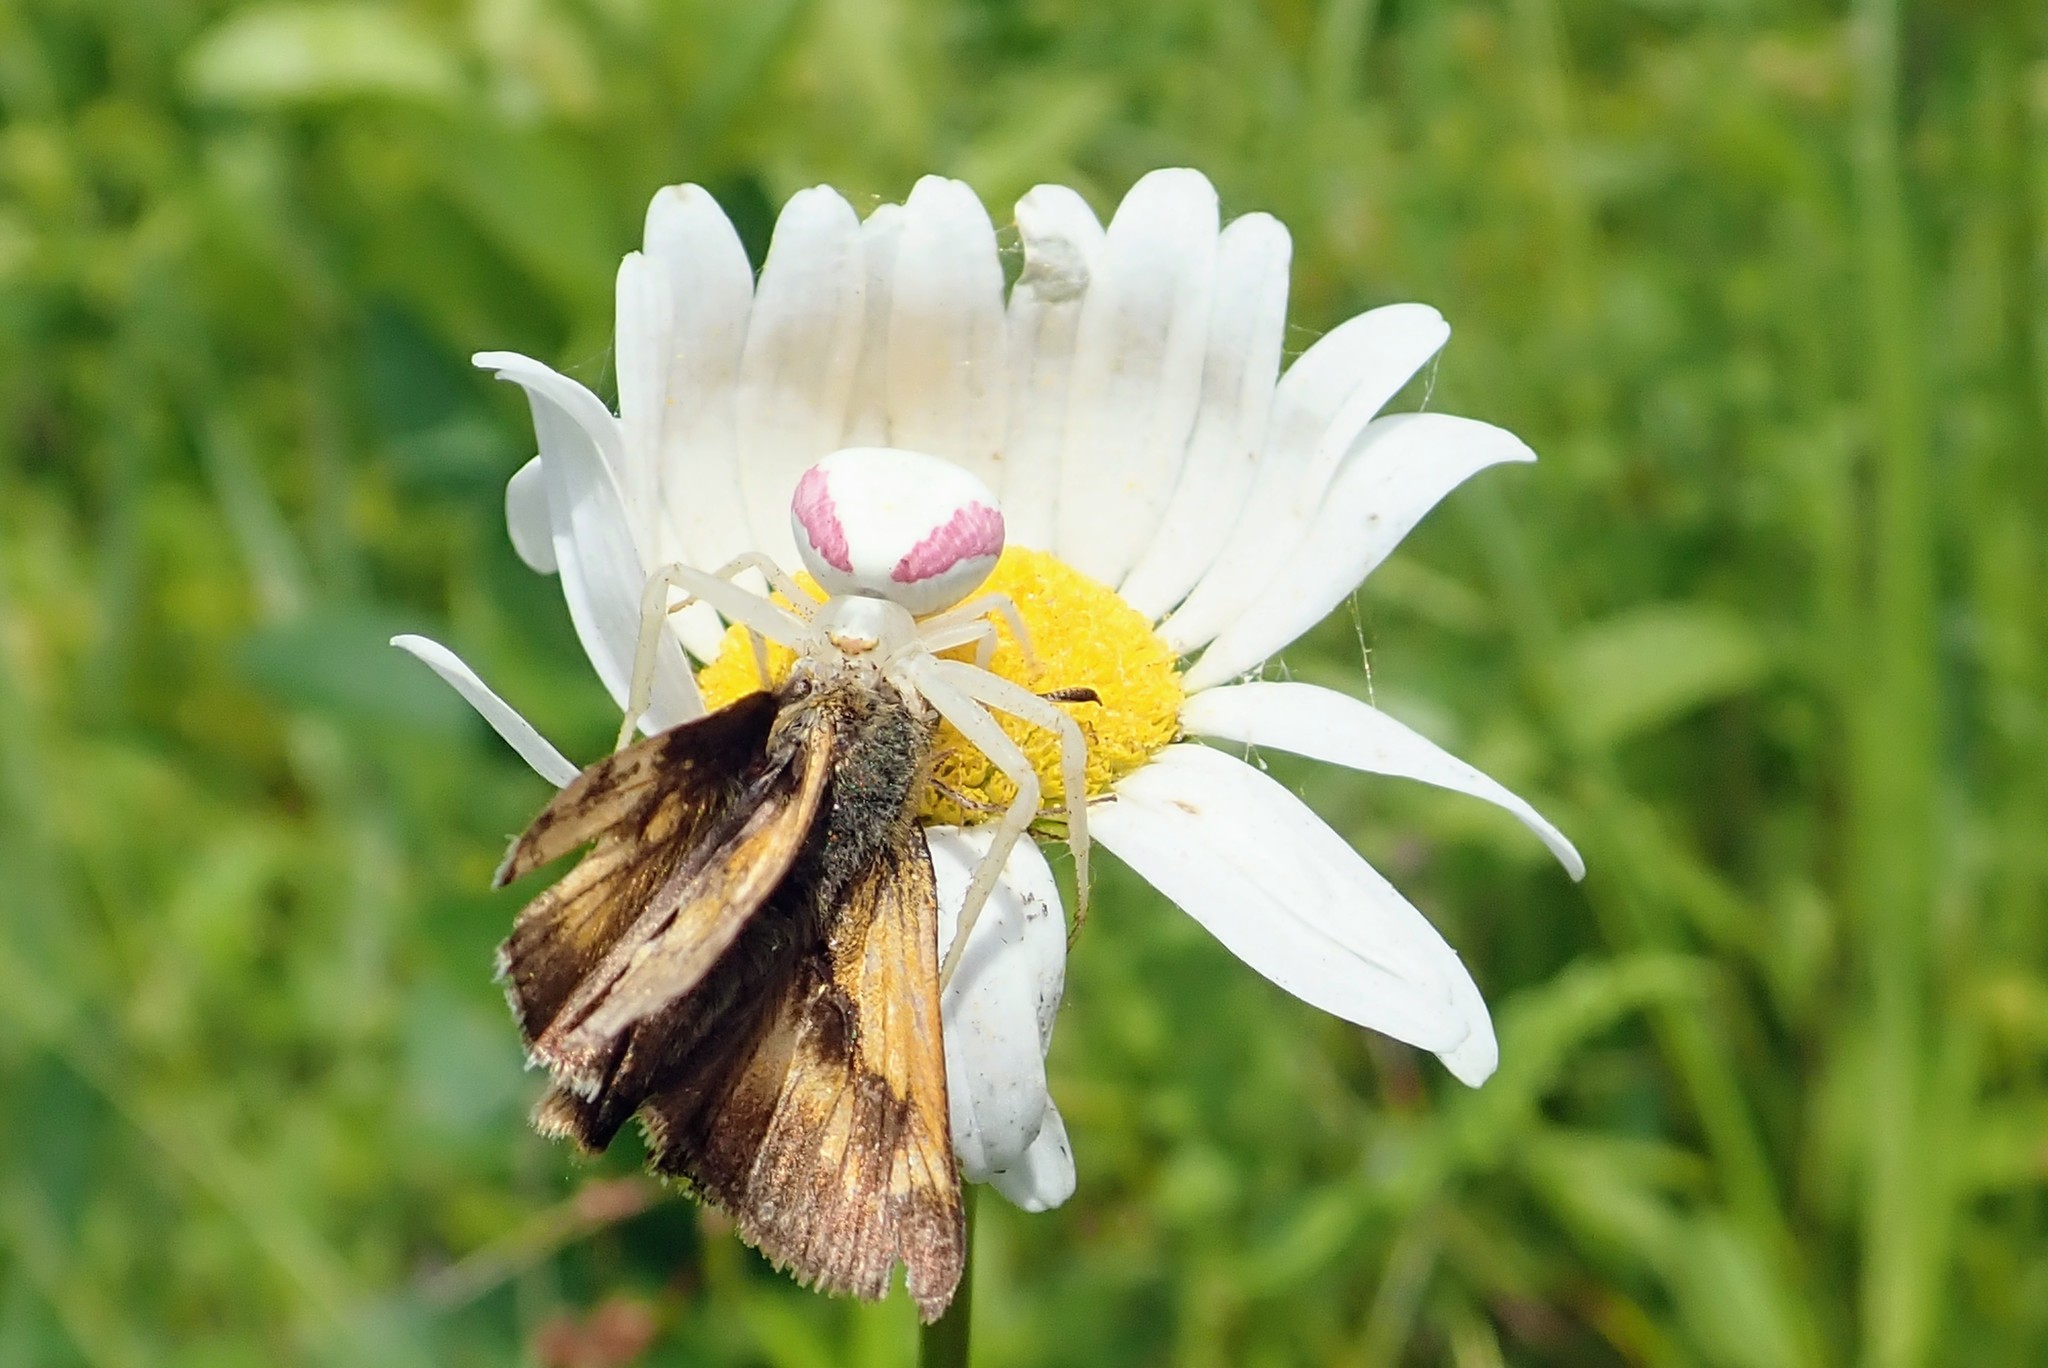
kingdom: Animalia
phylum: Arthropoda
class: Insecta
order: Lepidoptera
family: Hesperiidae
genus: Polites
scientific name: Polites mystic
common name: Long dash
